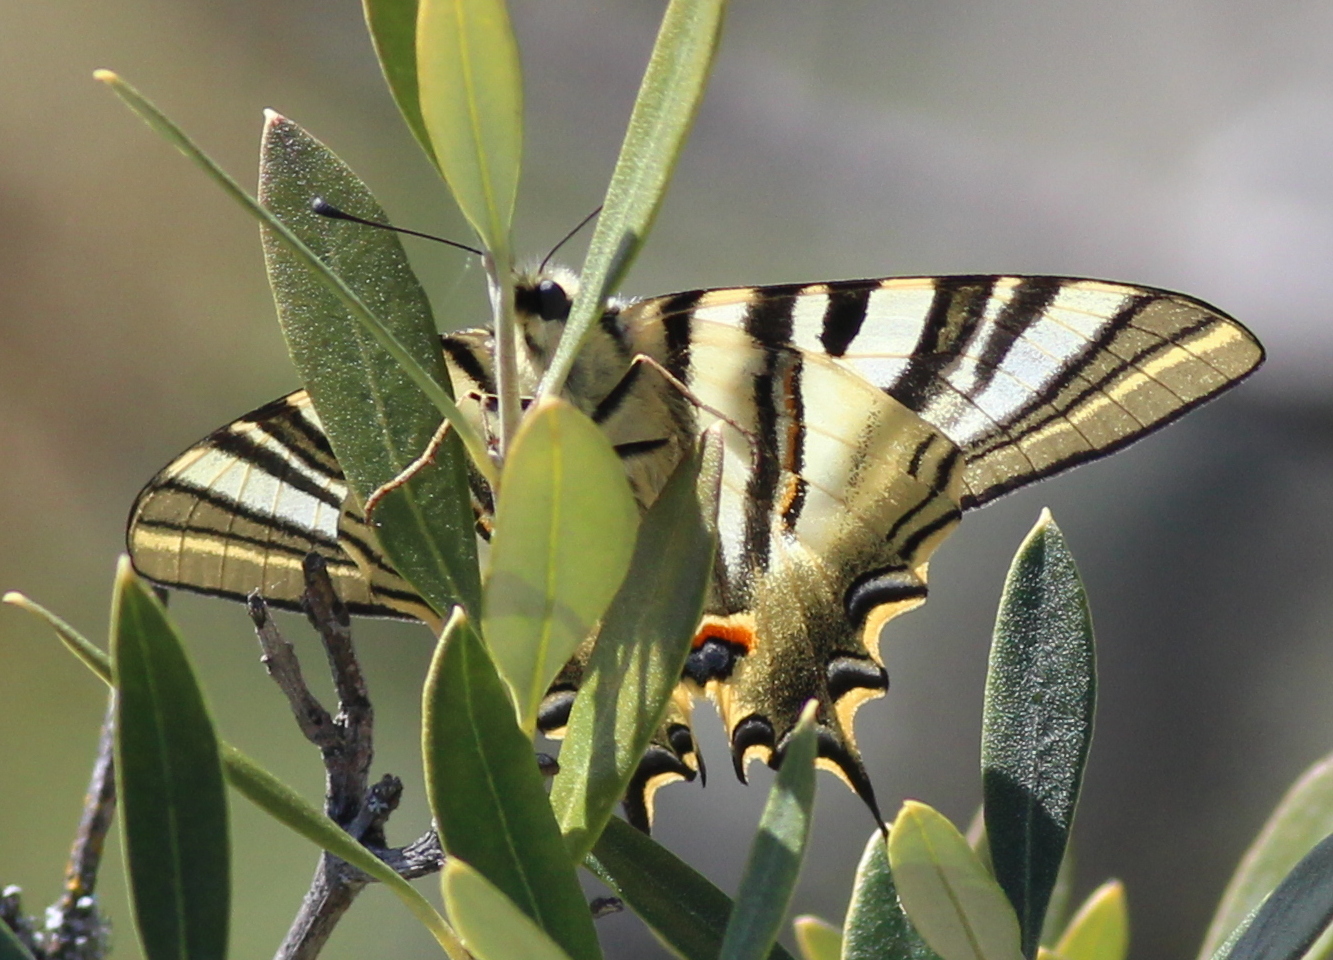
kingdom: Animalia
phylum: Arthropoda
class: Insecta
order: Lepidoptera
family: Papilionidae
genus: Iphiclides
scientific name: Iphiclides feisthamelii
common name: Iberian scarce swallowtail
